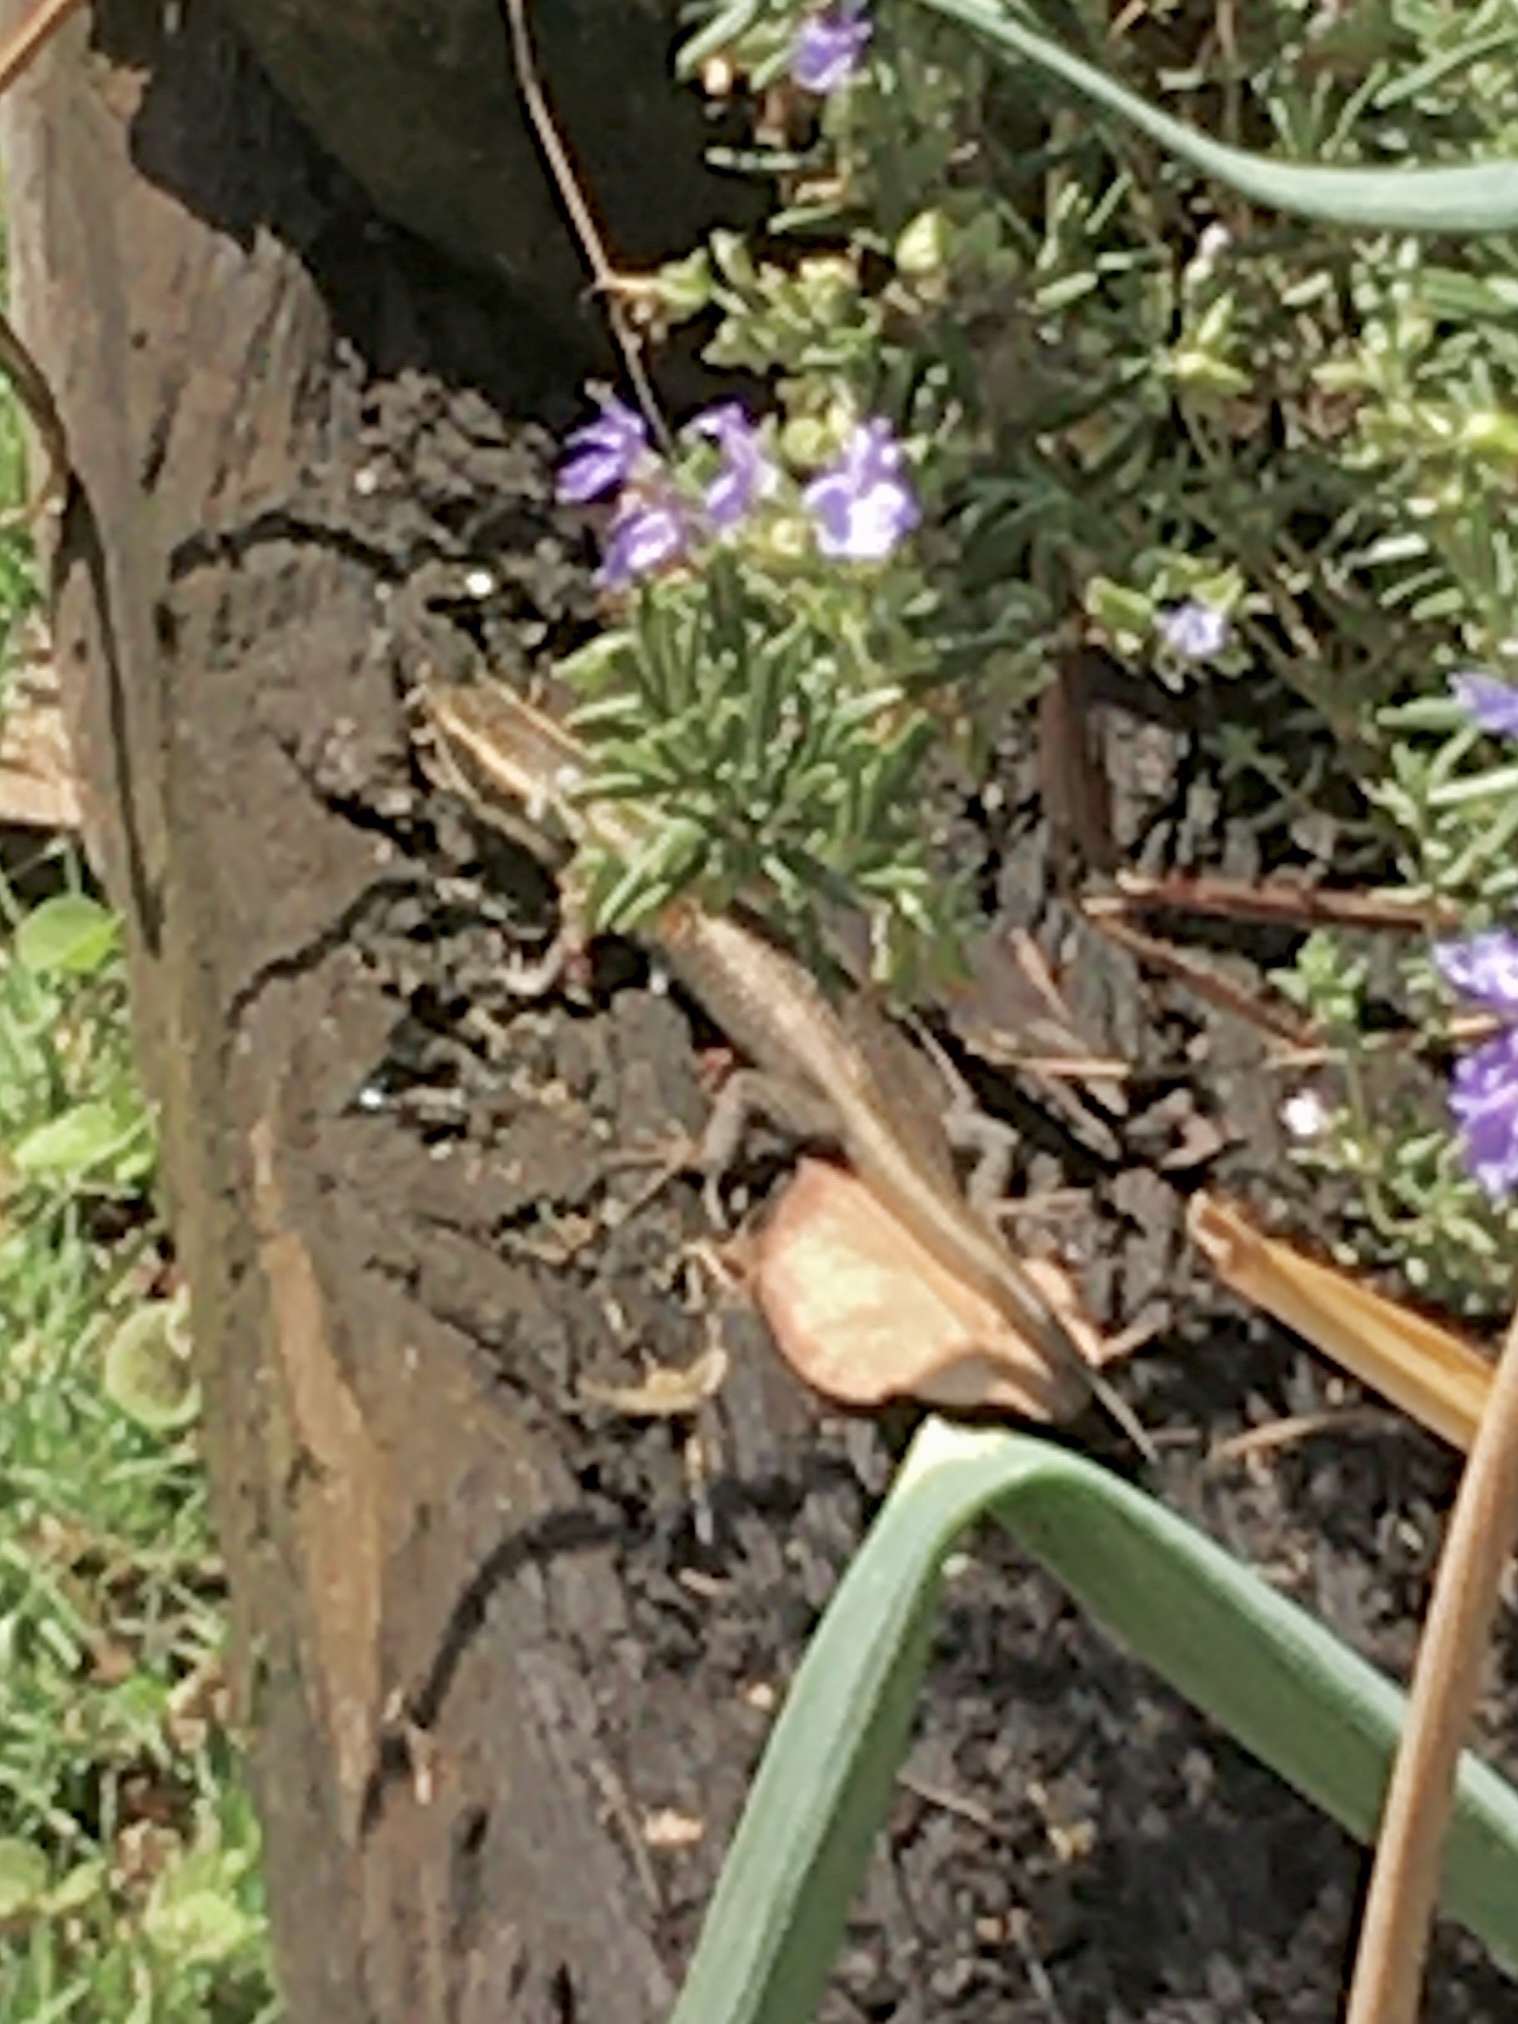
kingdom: Animalia
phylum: Chordata
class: Squamata
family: Scincidae
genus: Trachylepis
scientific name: Trachylepis punctatissima
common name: Montane speckled skink
